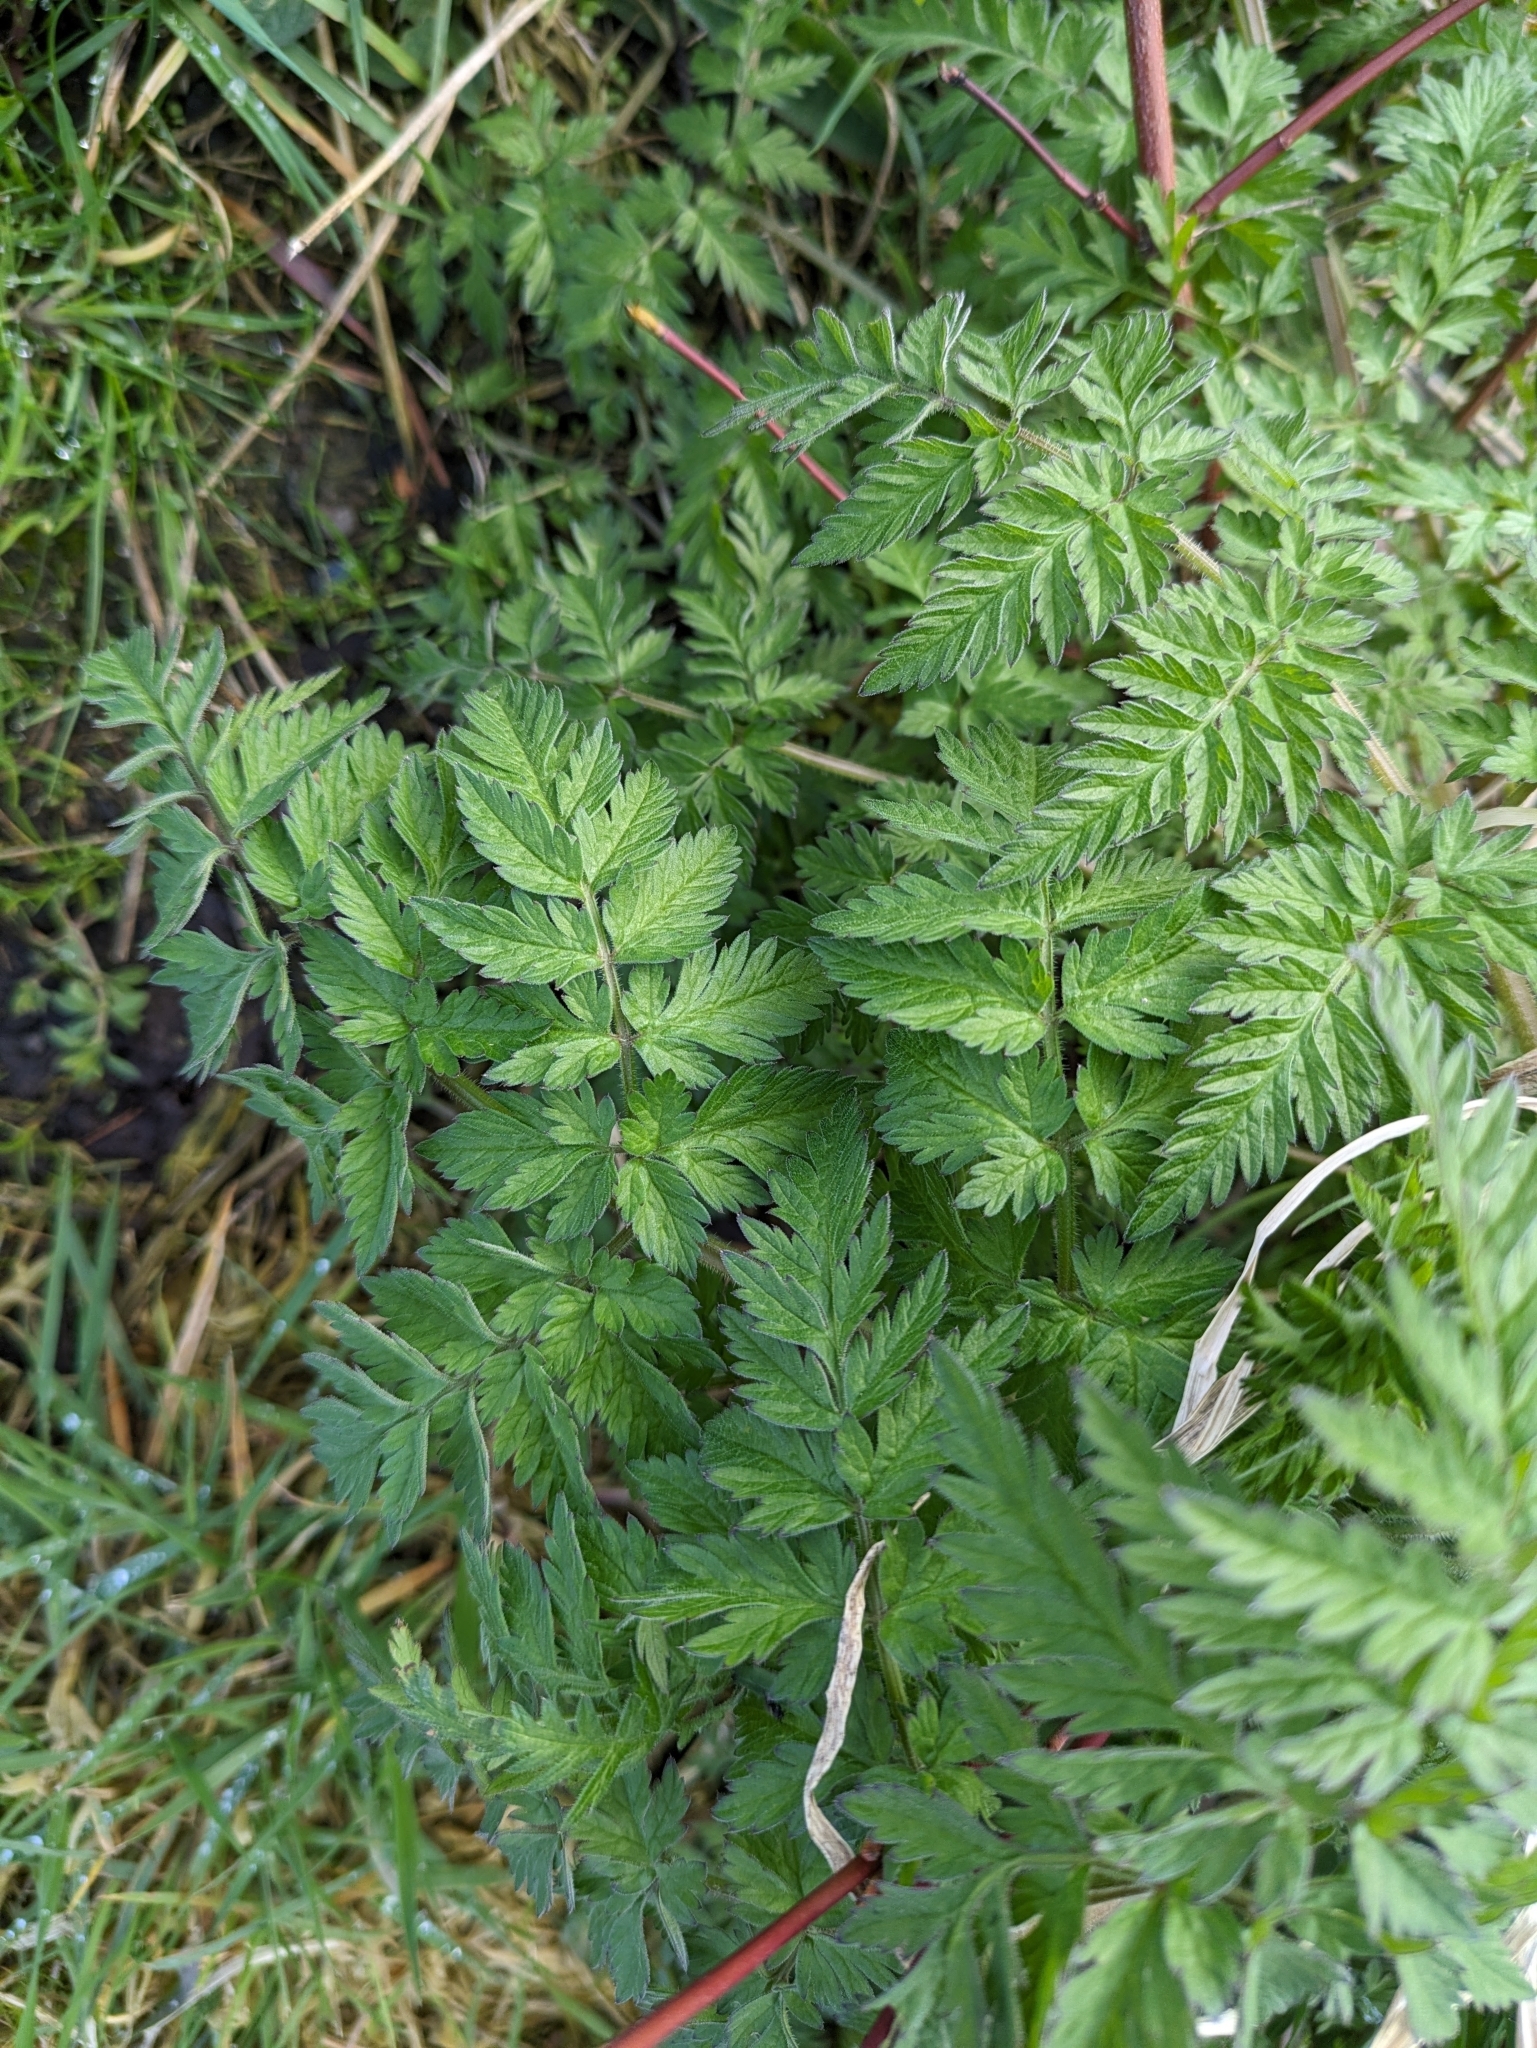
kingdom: Plantae
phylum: Tracheophyta
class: Magnoliopsida
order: Apiales
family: Apiaceae
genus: Anthriscus
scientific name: Anthriscus sylvestris
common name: Cow parsley
